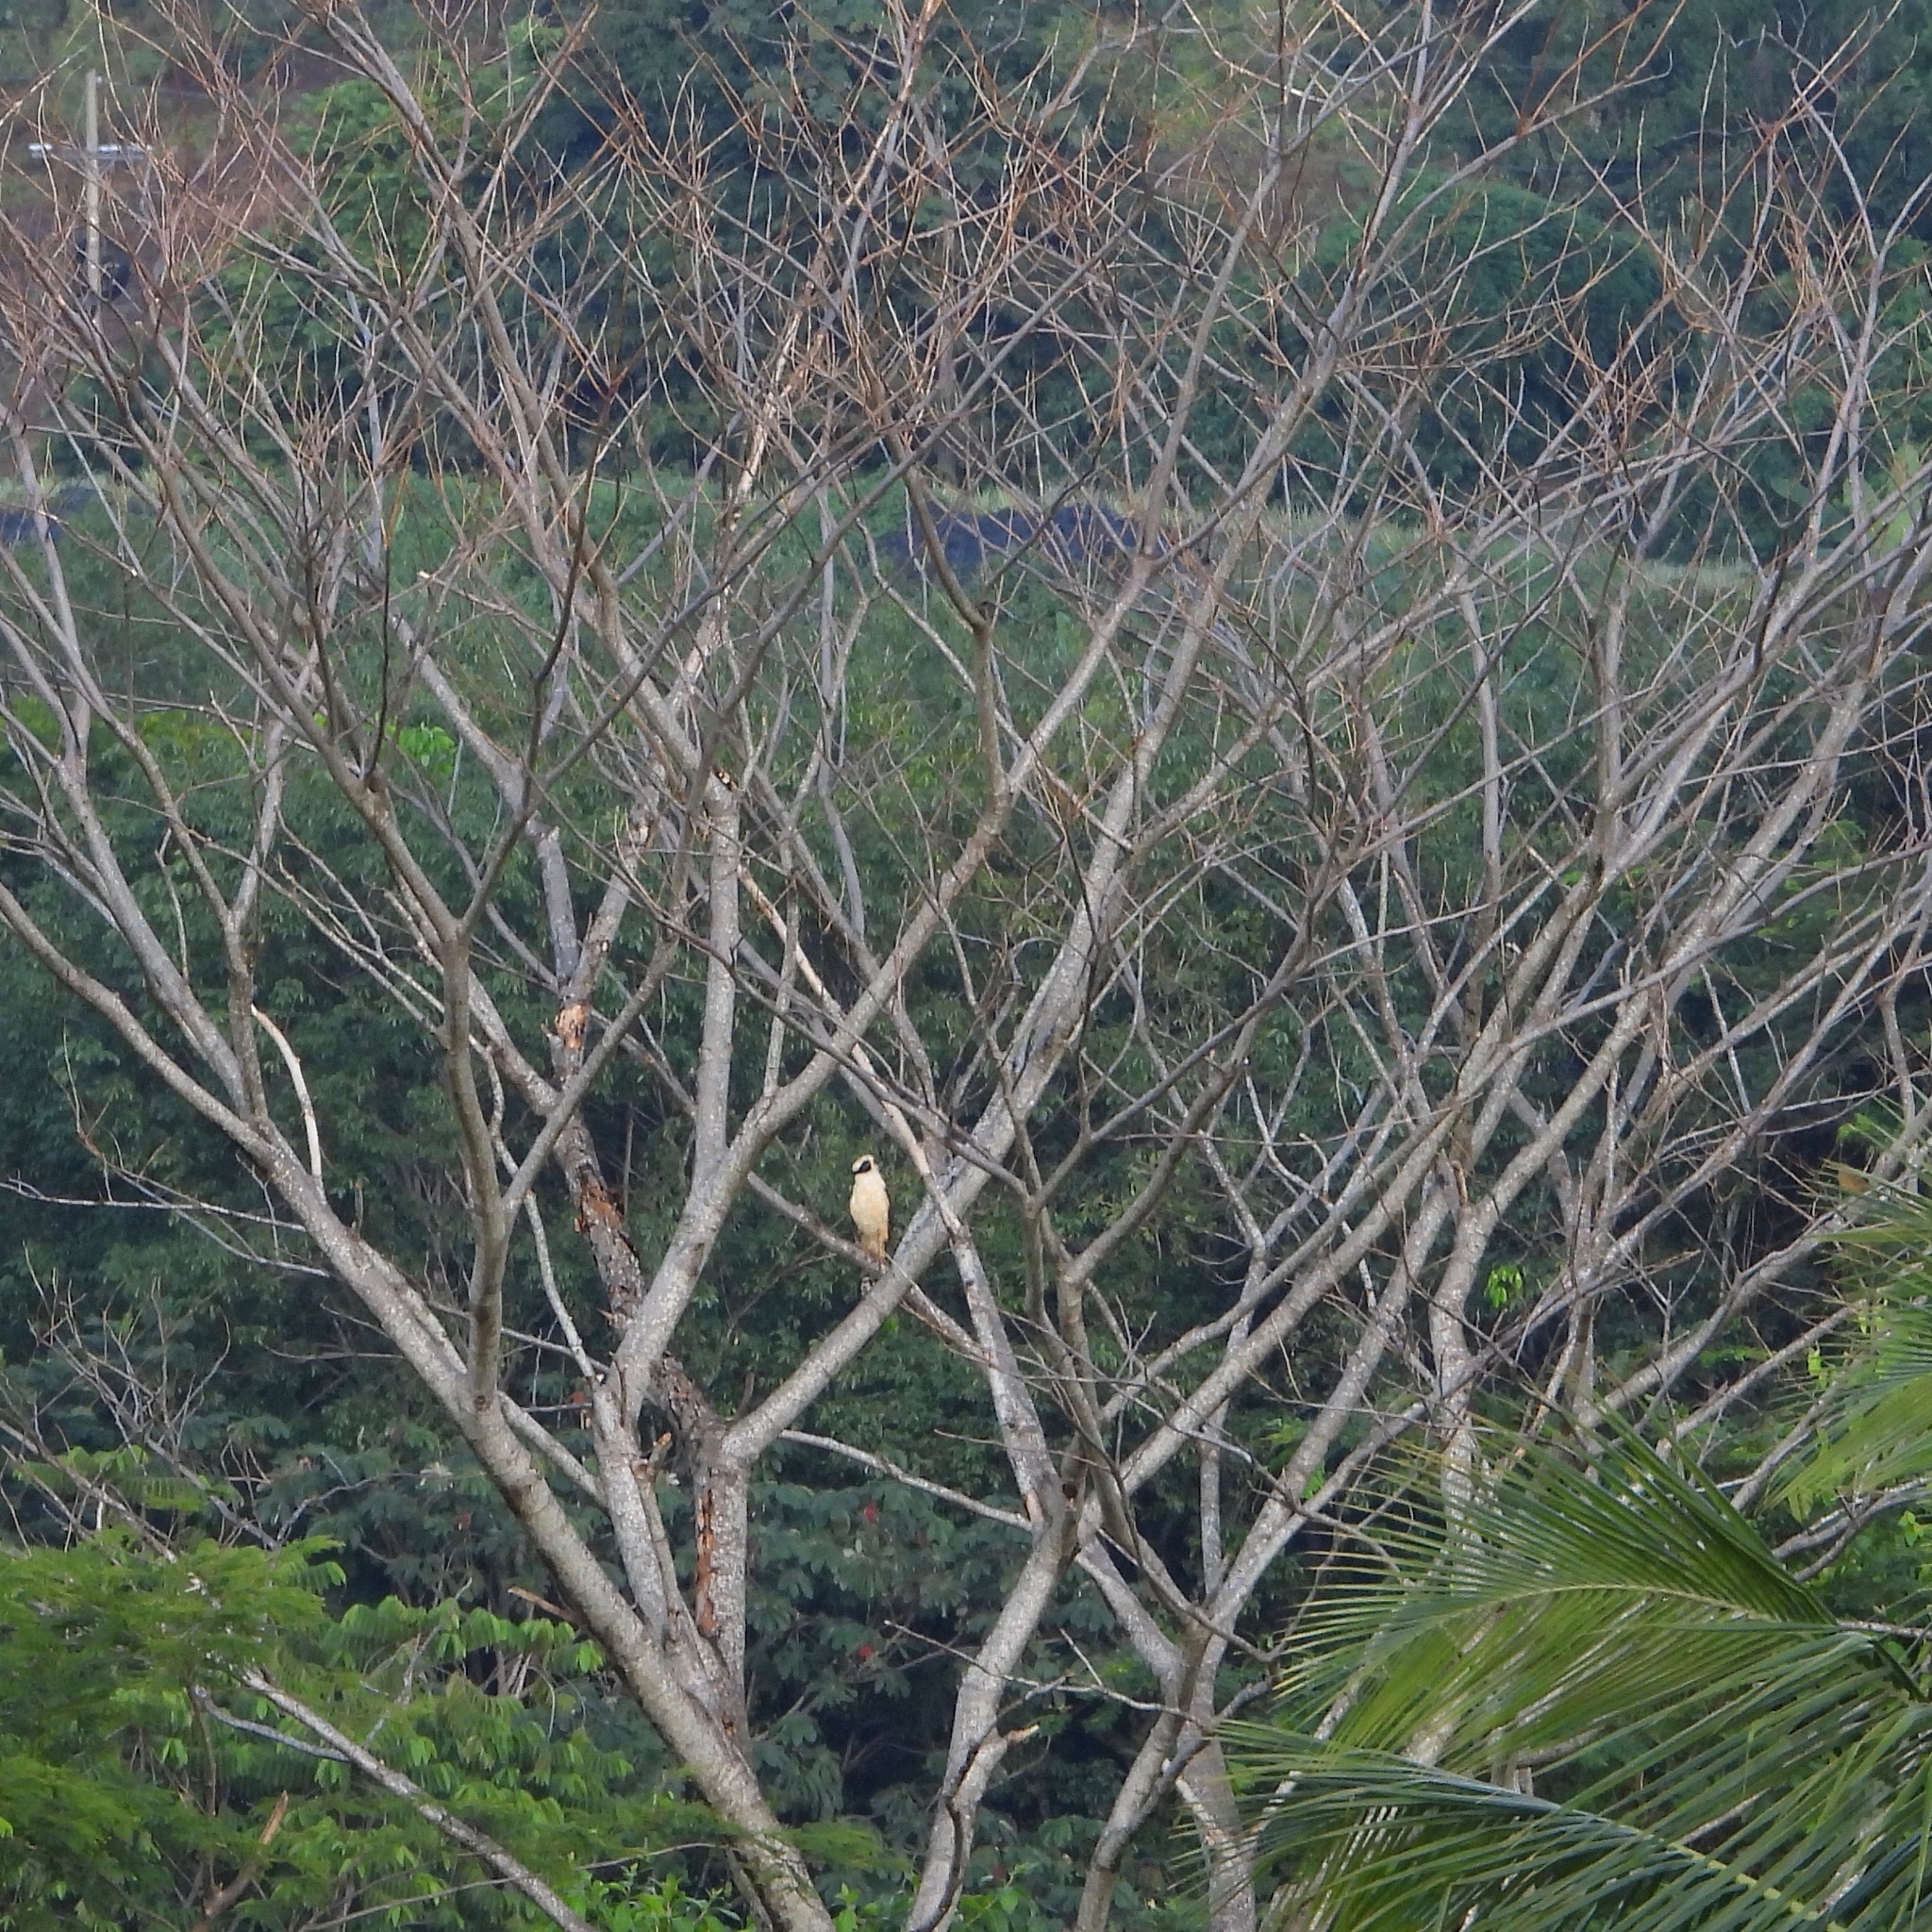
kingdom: Animalia
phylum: Chordata
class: Aves
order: Falconiformes
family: Falconidae
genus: Herpetotheres
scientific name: Herpetotheres cachinnans
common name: Laughing falcon
